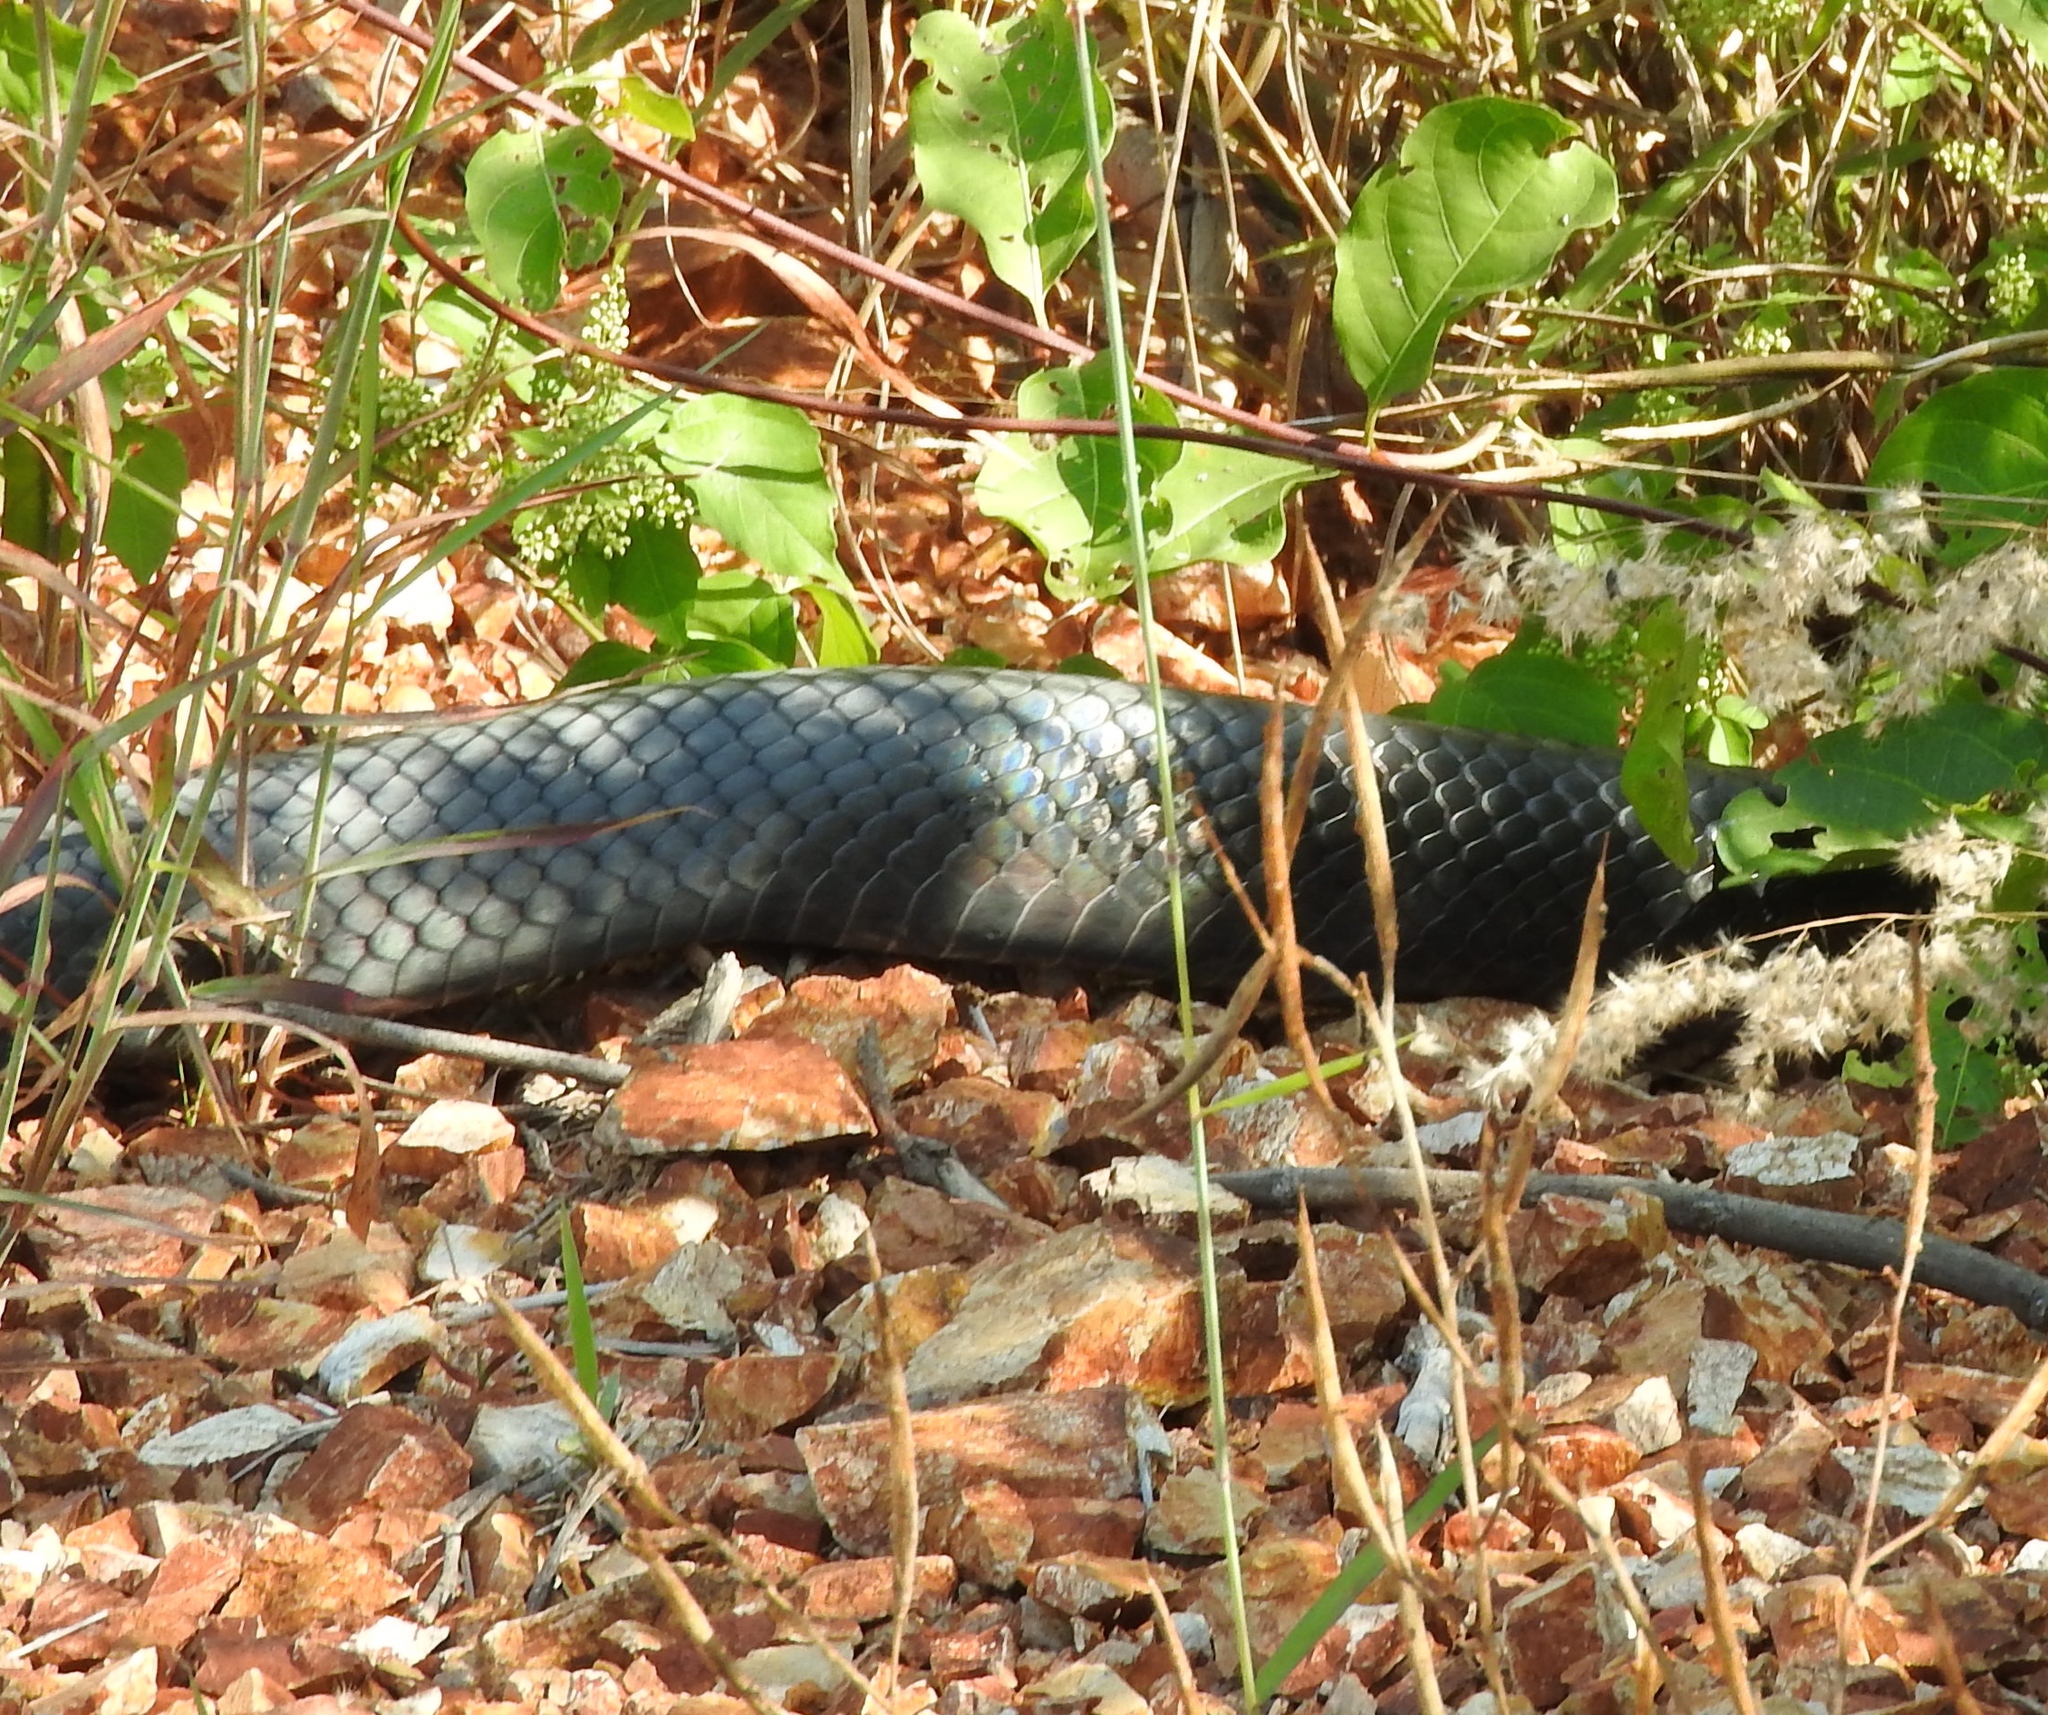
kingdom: Animalia
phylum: Chordata
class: Squamata
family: Colubridae
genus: Drymarchon
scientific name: Drymarchon melanurus
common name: Central american indigo snake
